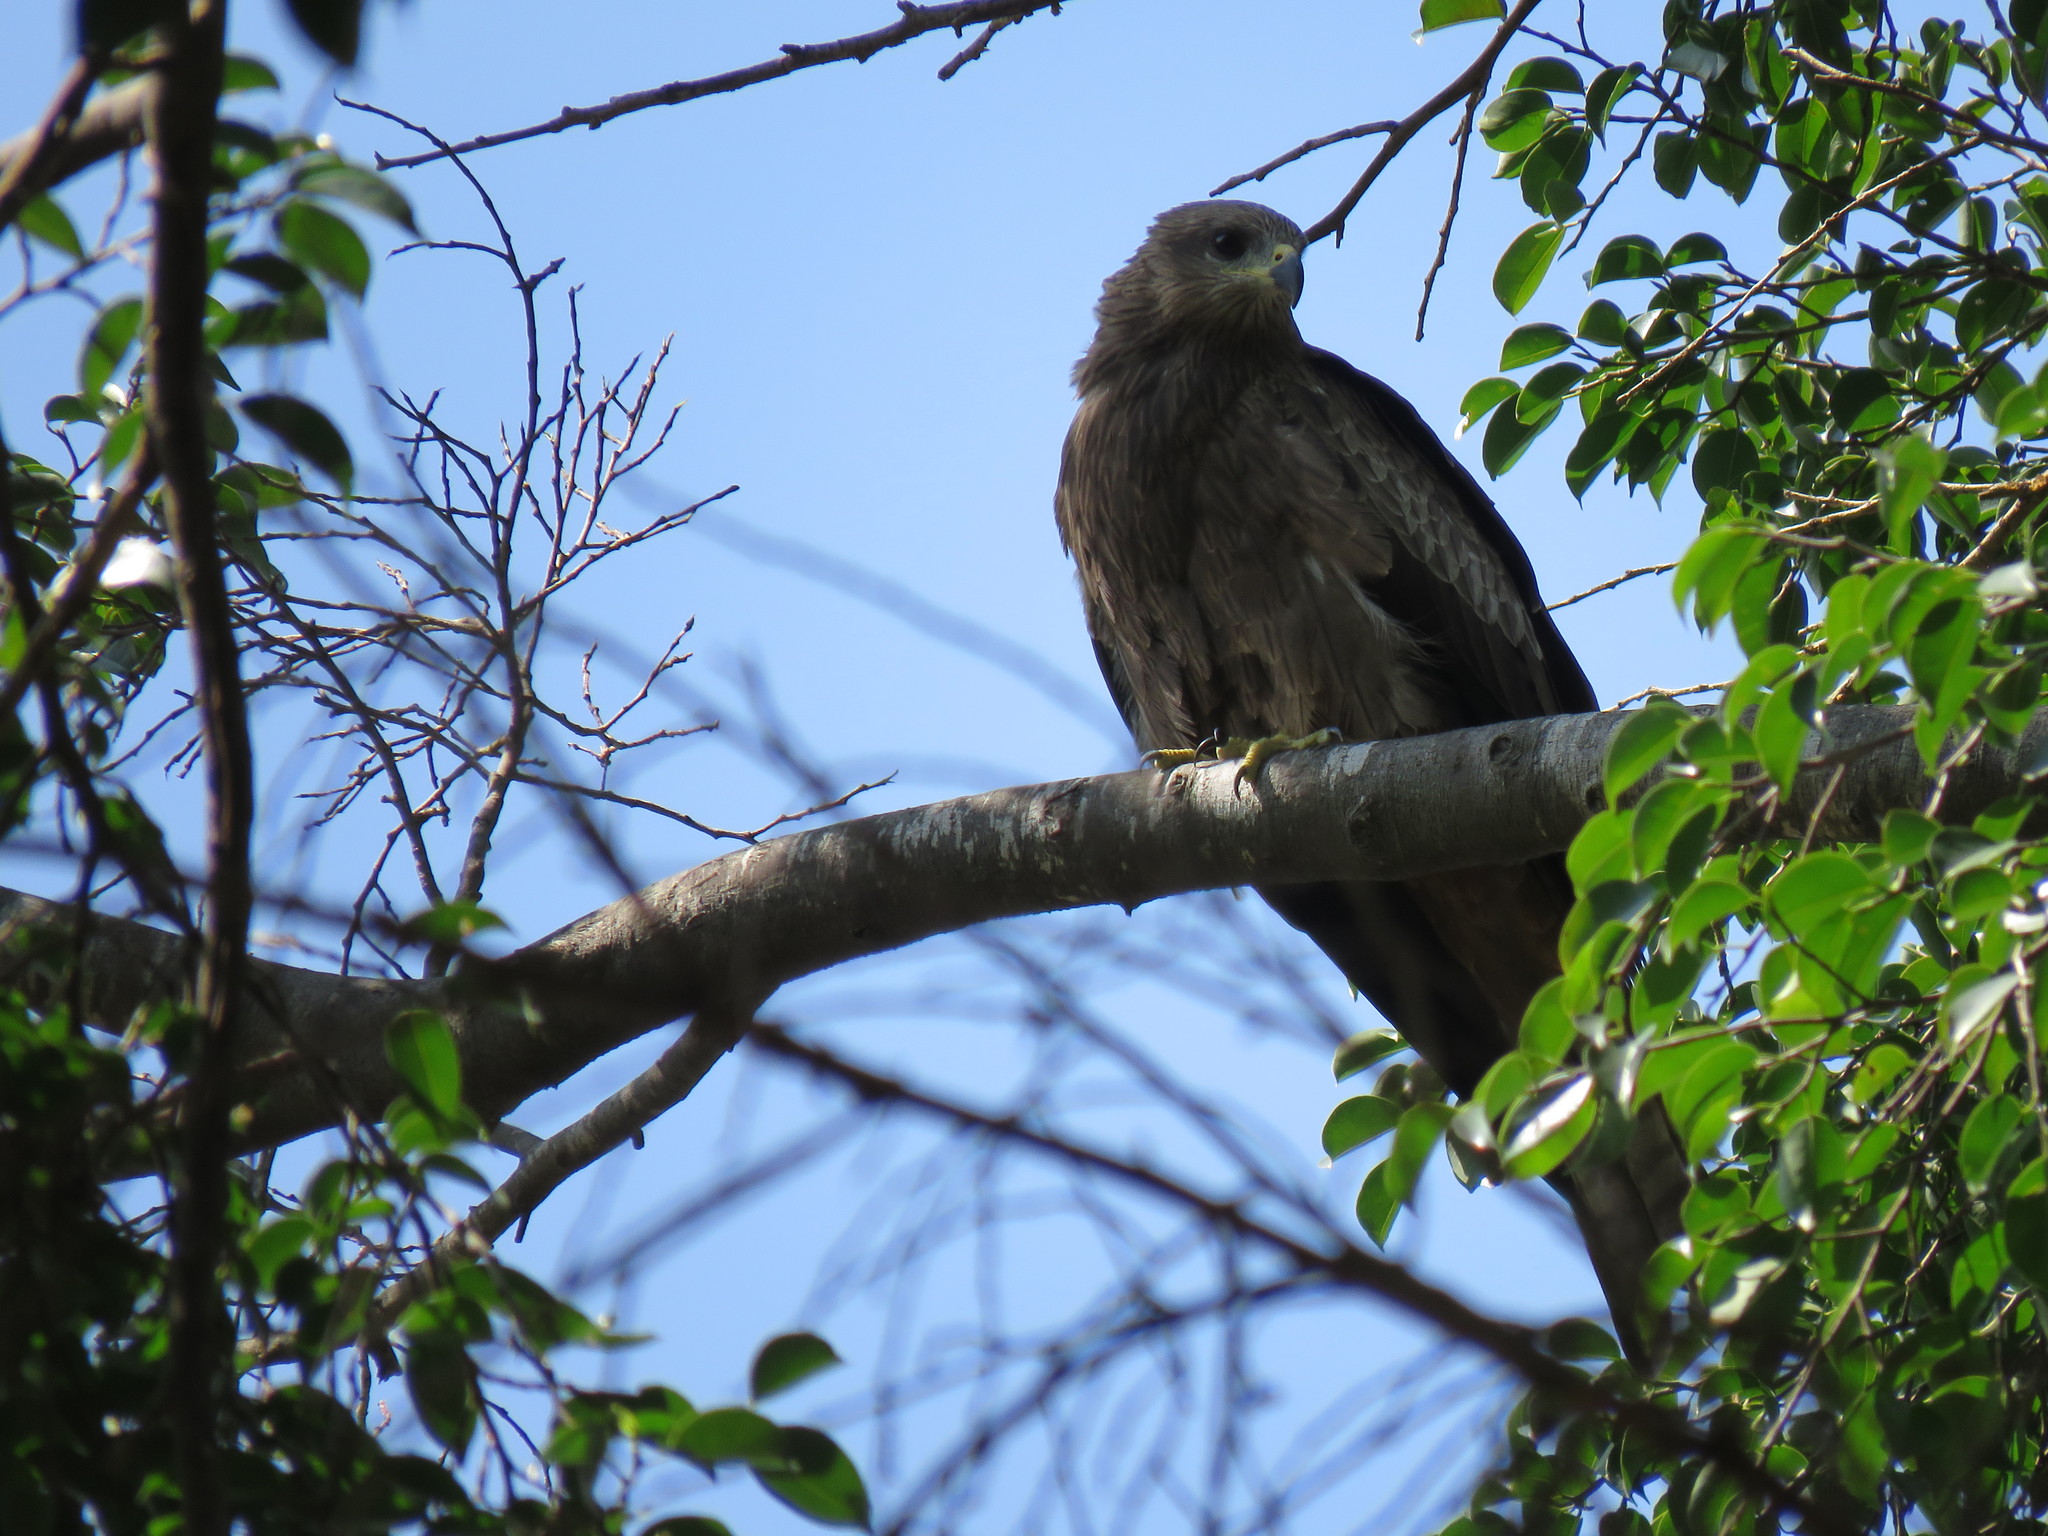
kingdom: Animalia
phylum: Chordata
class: Aves
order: Accipitriformes
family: Accipitridae
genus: Milvus
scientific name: Milvus migrans
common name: Black kite
